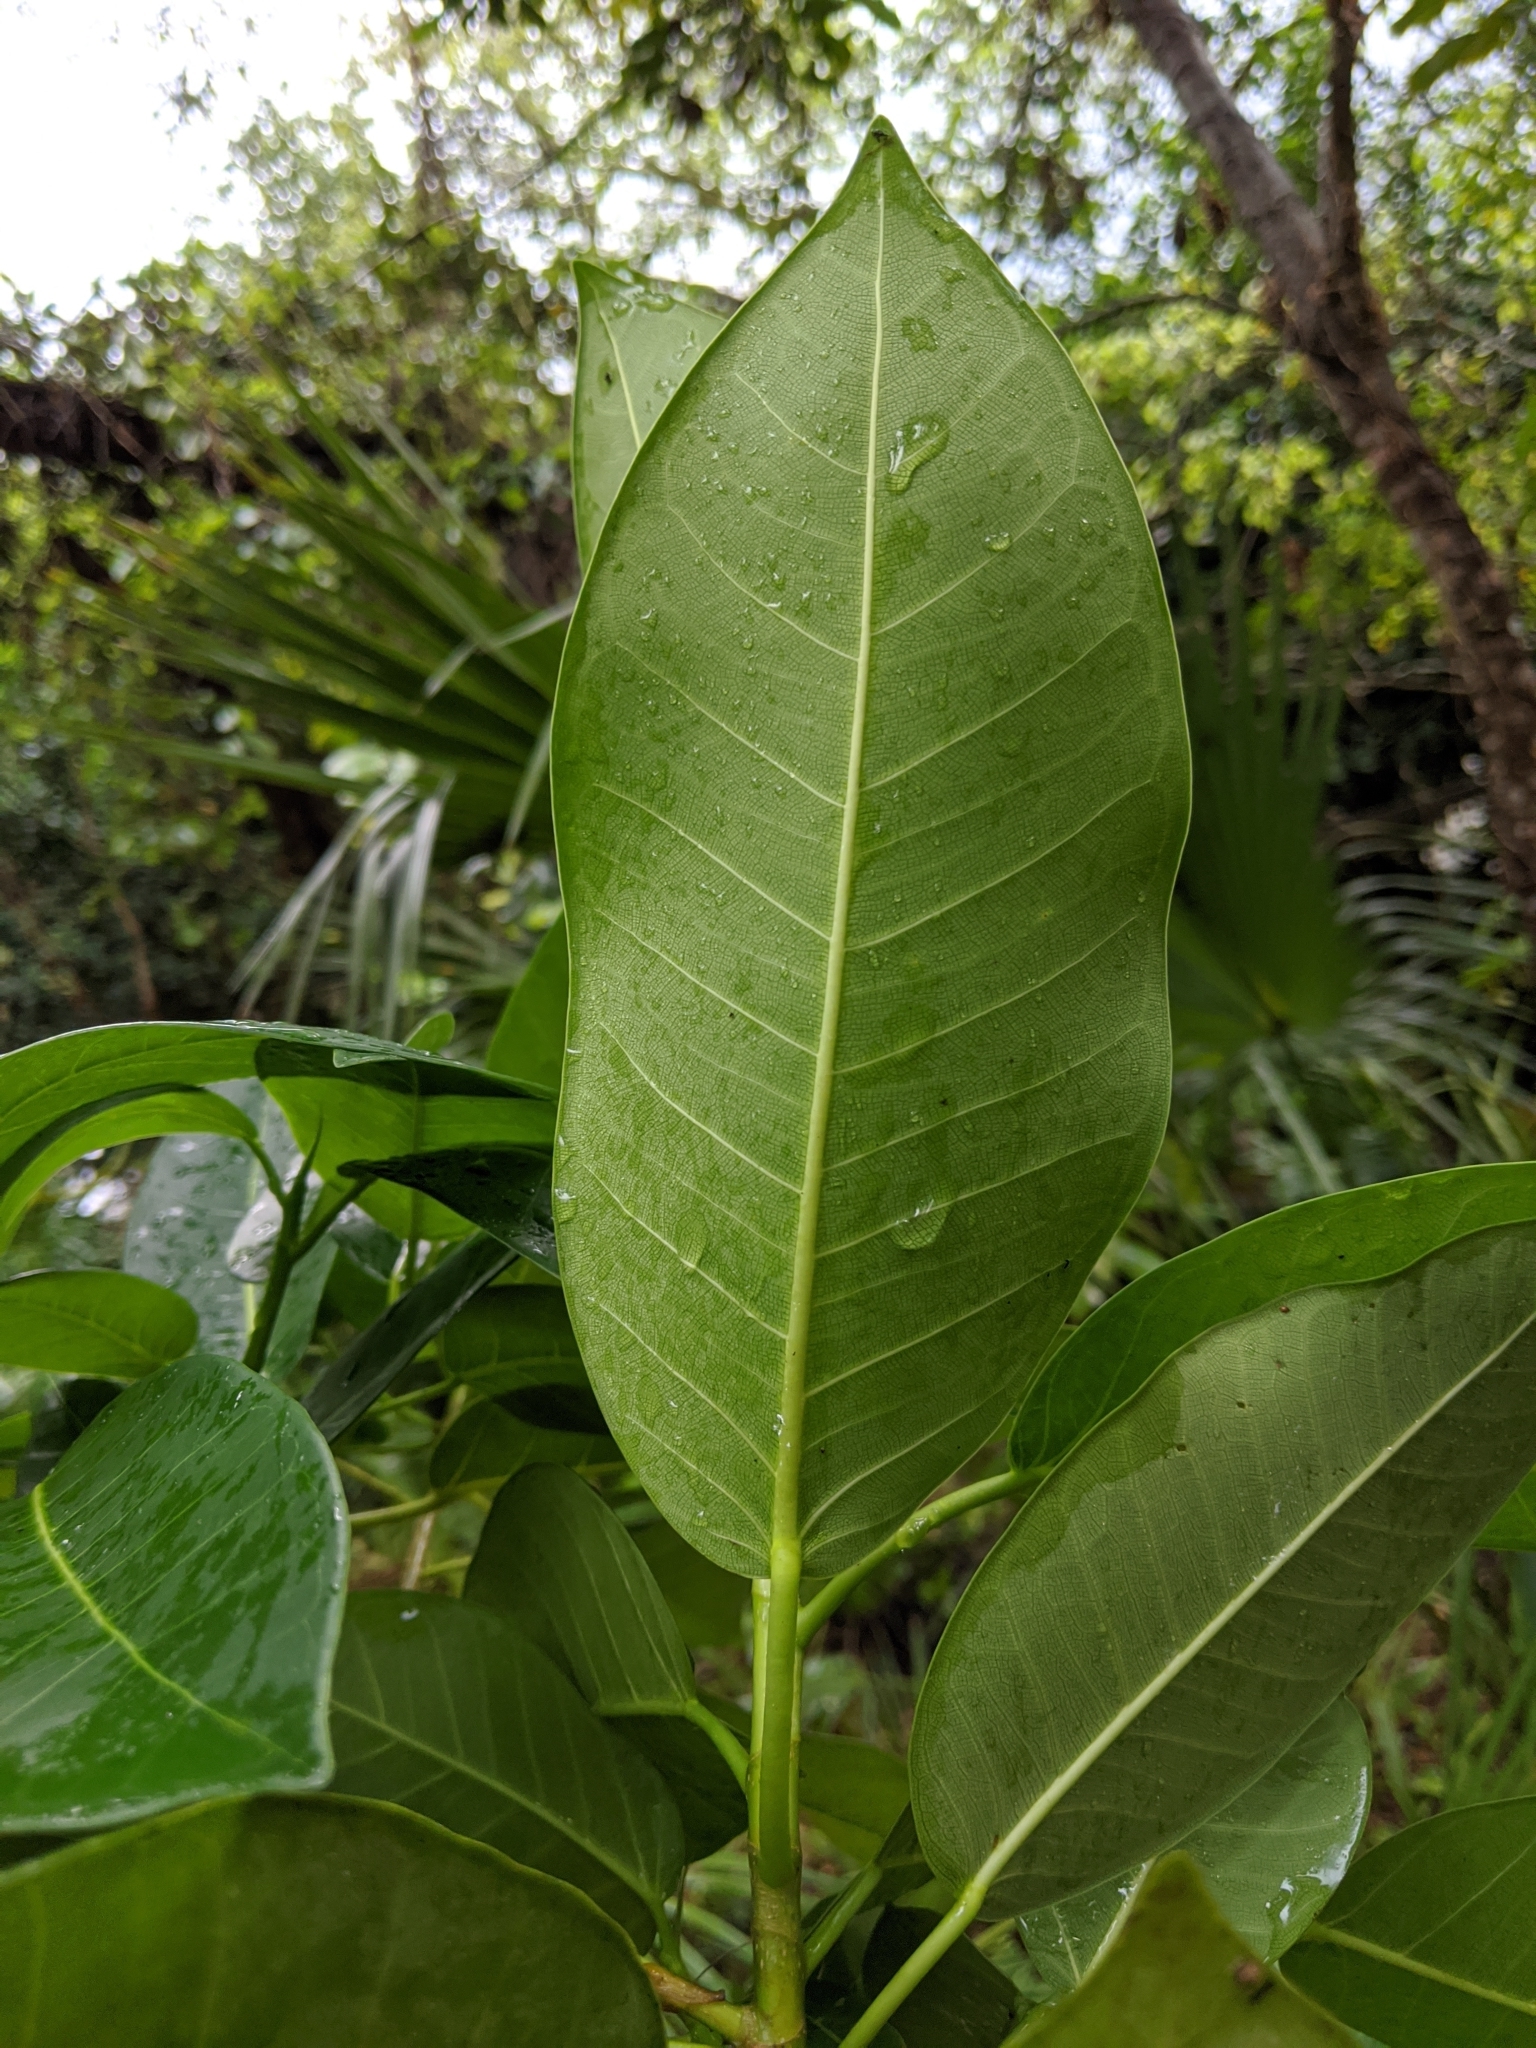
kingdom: Plantae
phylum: Tracheophyta
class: Magnoliopsida
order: Rosales
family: Moraceae
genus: Ficus
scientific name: Ficus aurea
